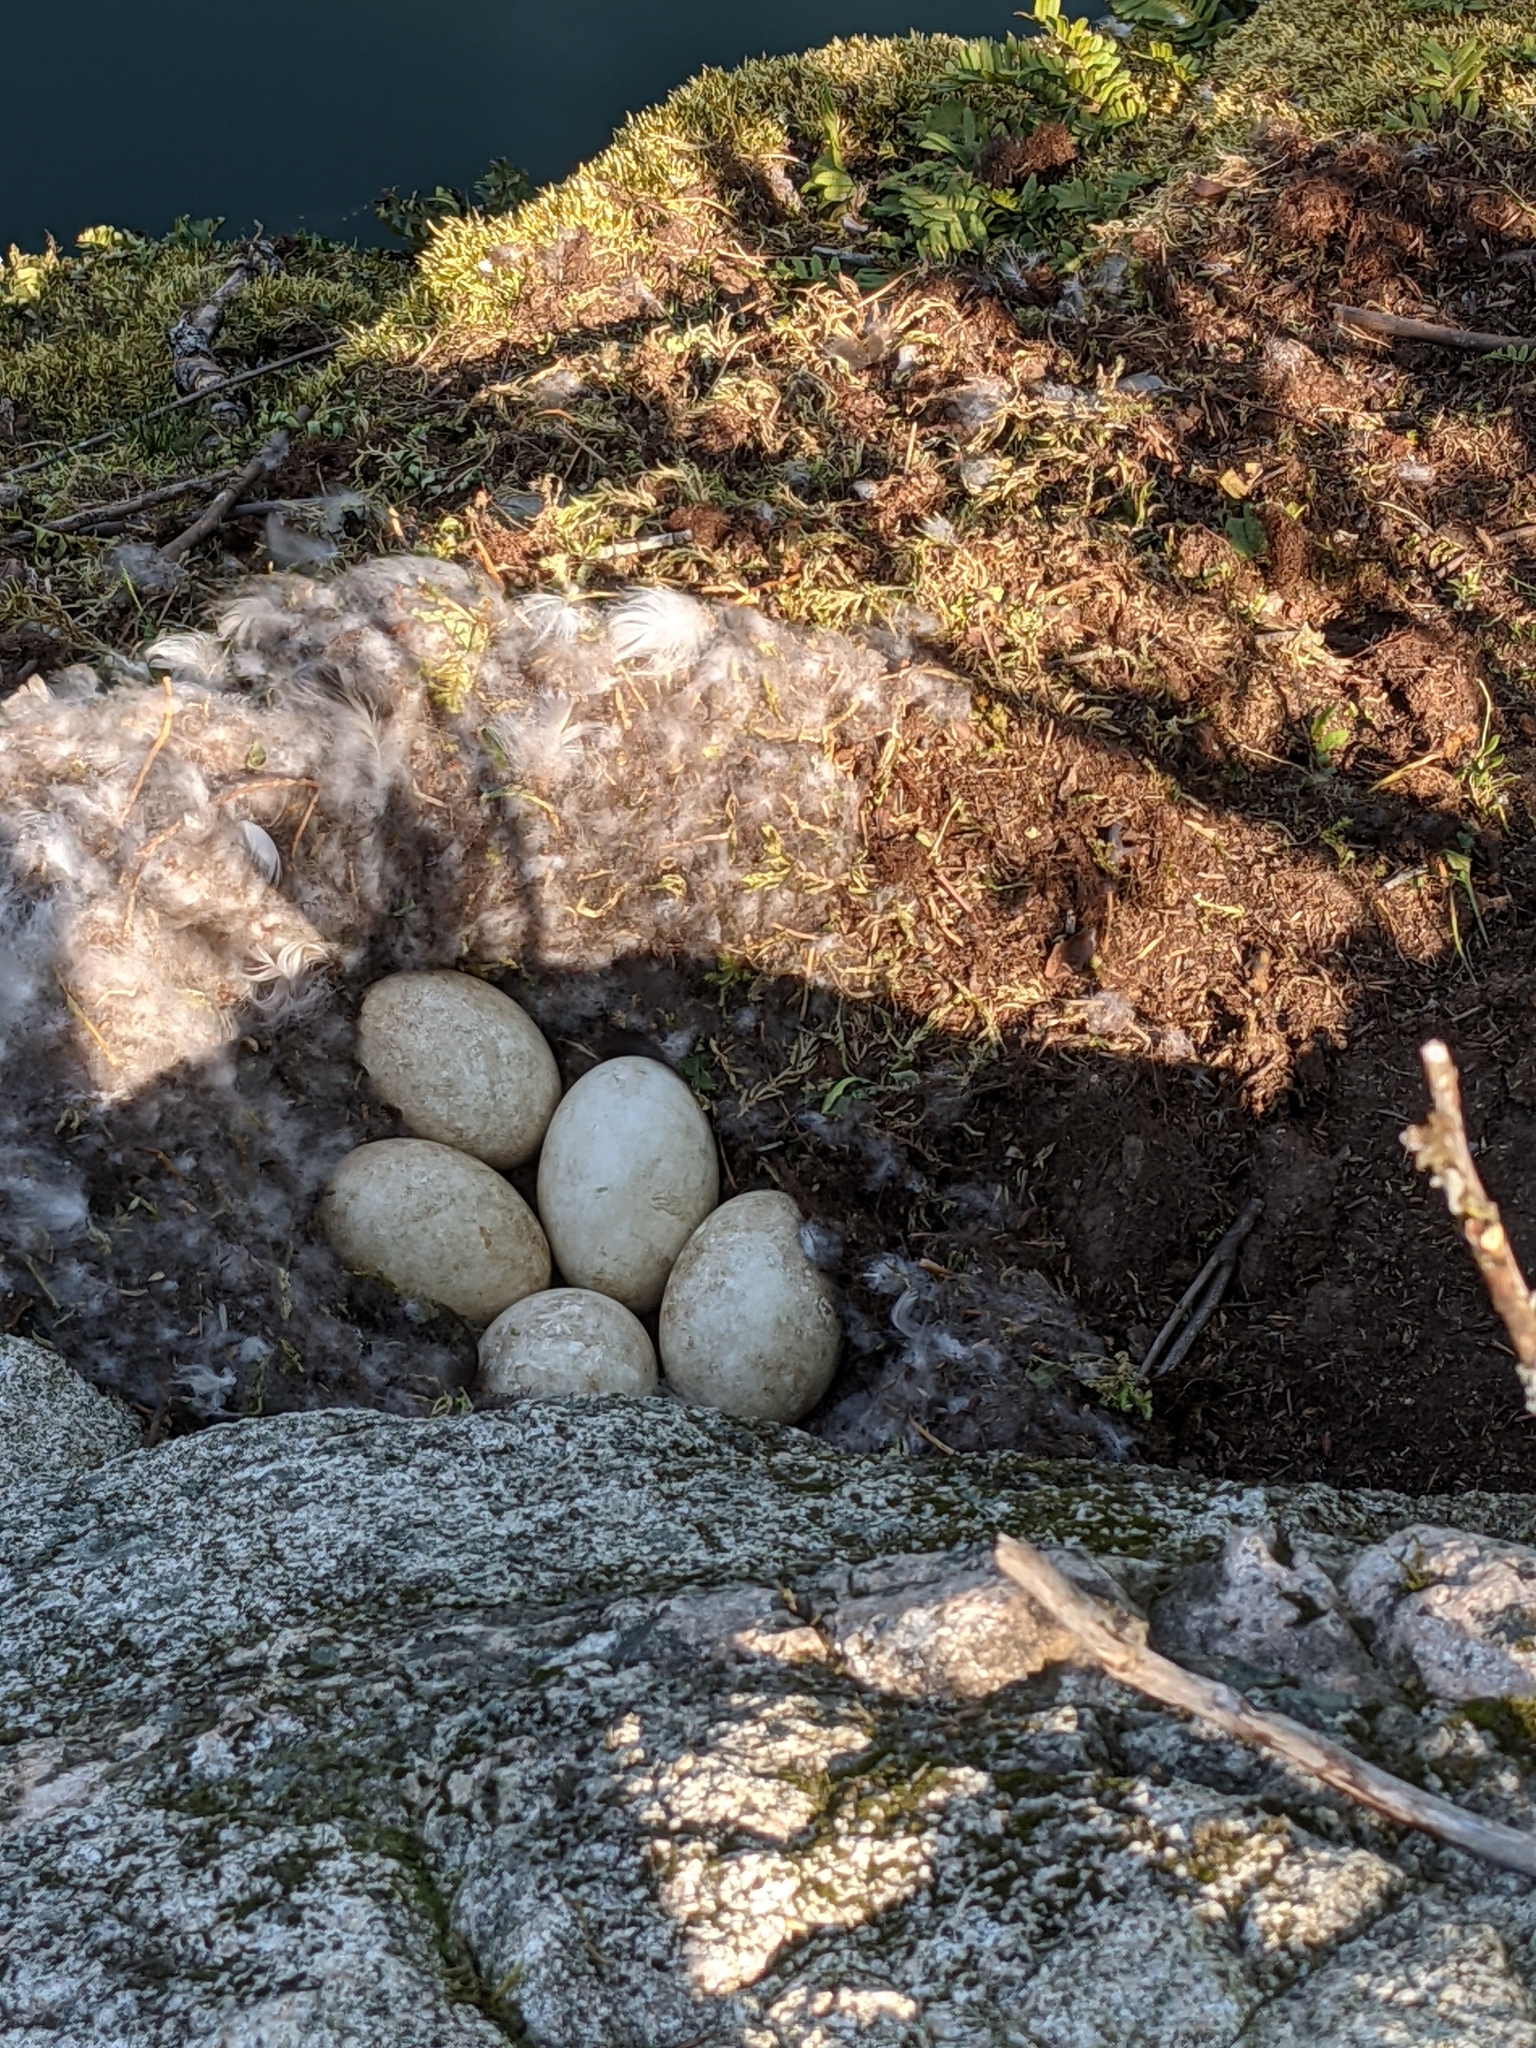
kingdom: Animalia
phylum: Chordata
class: Aves
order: Anseriformes
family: Anatidae
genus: Branta
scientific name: Branta canadensis
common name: Canada goose
